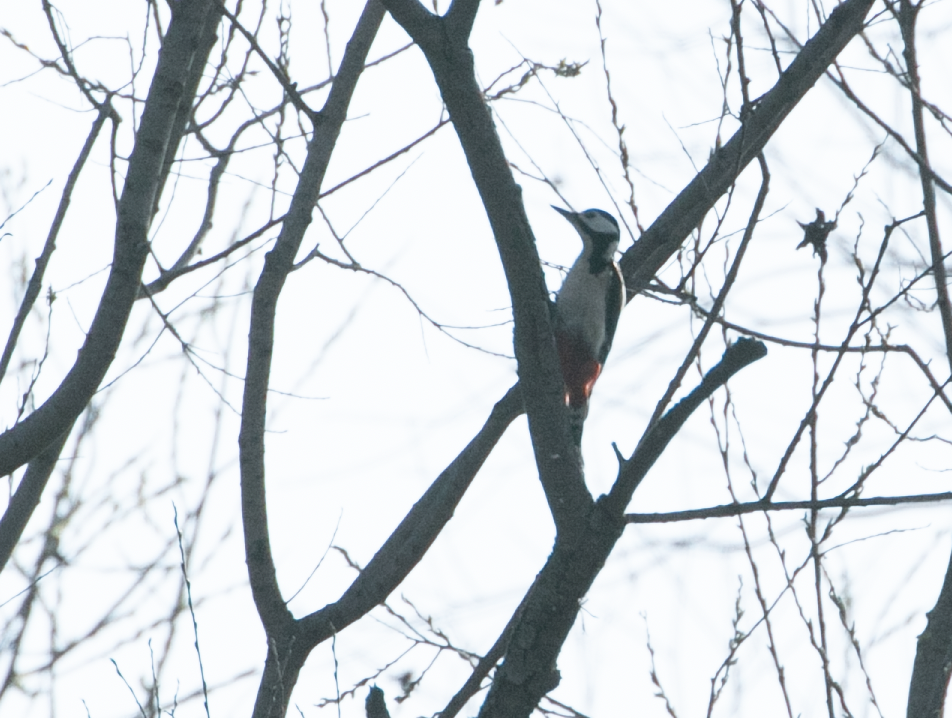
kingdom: Animalia
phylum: Chordata
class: Aves
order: Piciformes
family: Picidae
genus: Dendrocopos
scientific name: Dendrocopos major
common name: Great spotted woodpecker
